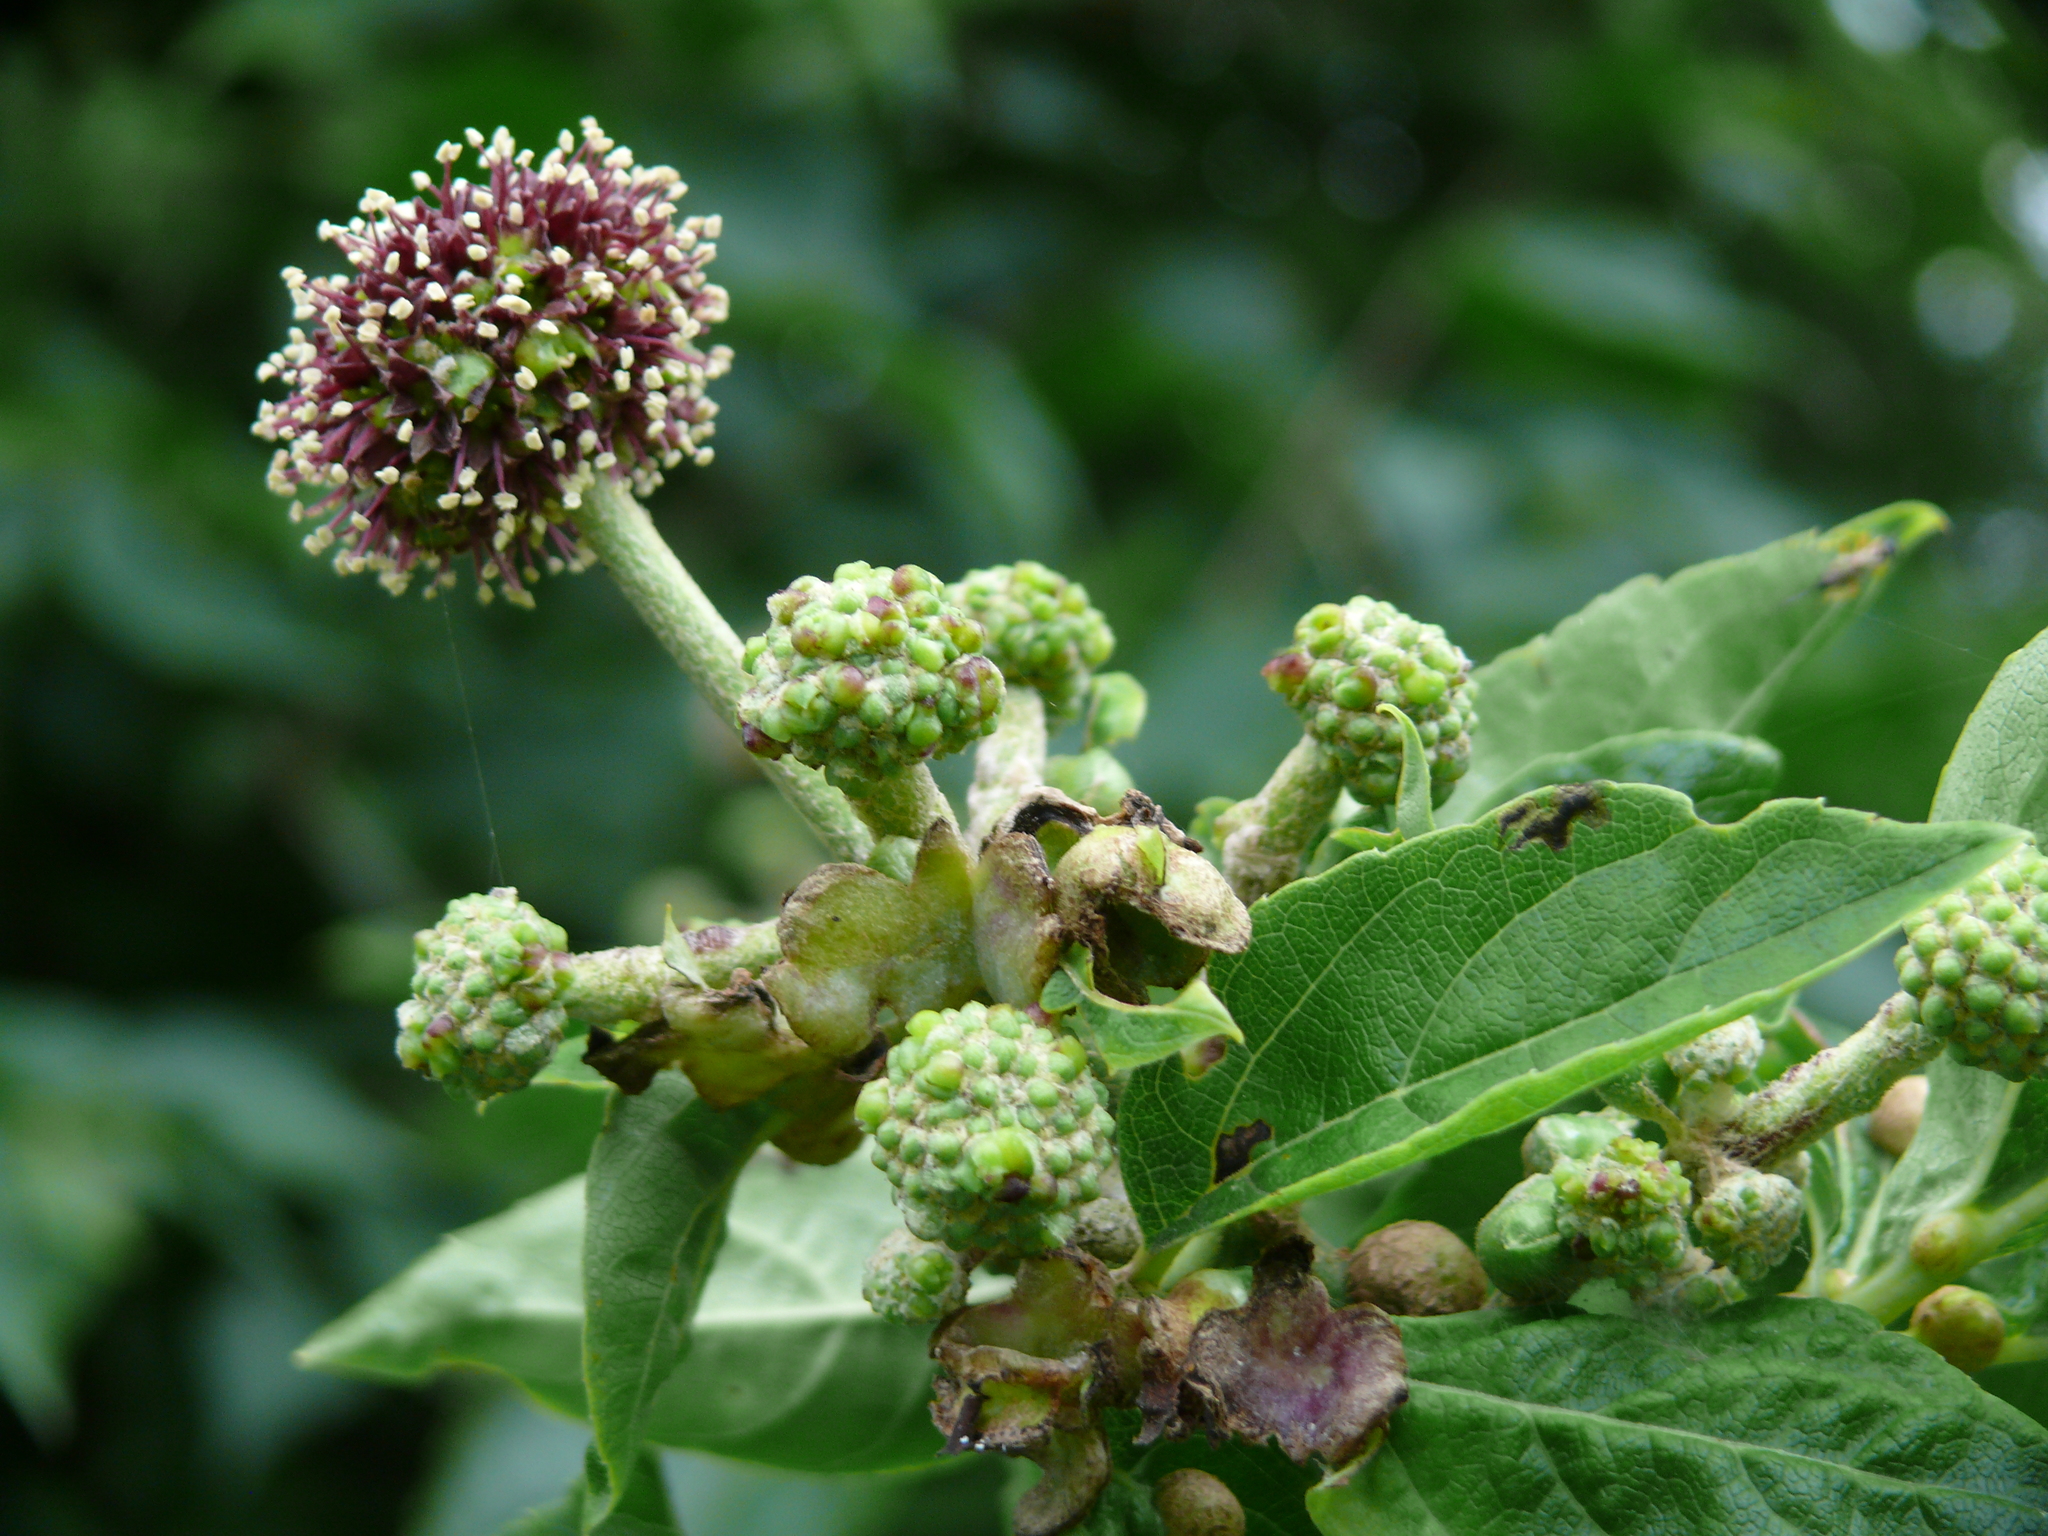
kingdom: Plantae
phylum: Tracheophyta
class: Magnoliopsida
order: Apiales
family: Araliaceae
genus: Eleutherococcus
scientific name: Eleutherococcus sessiliflorus
